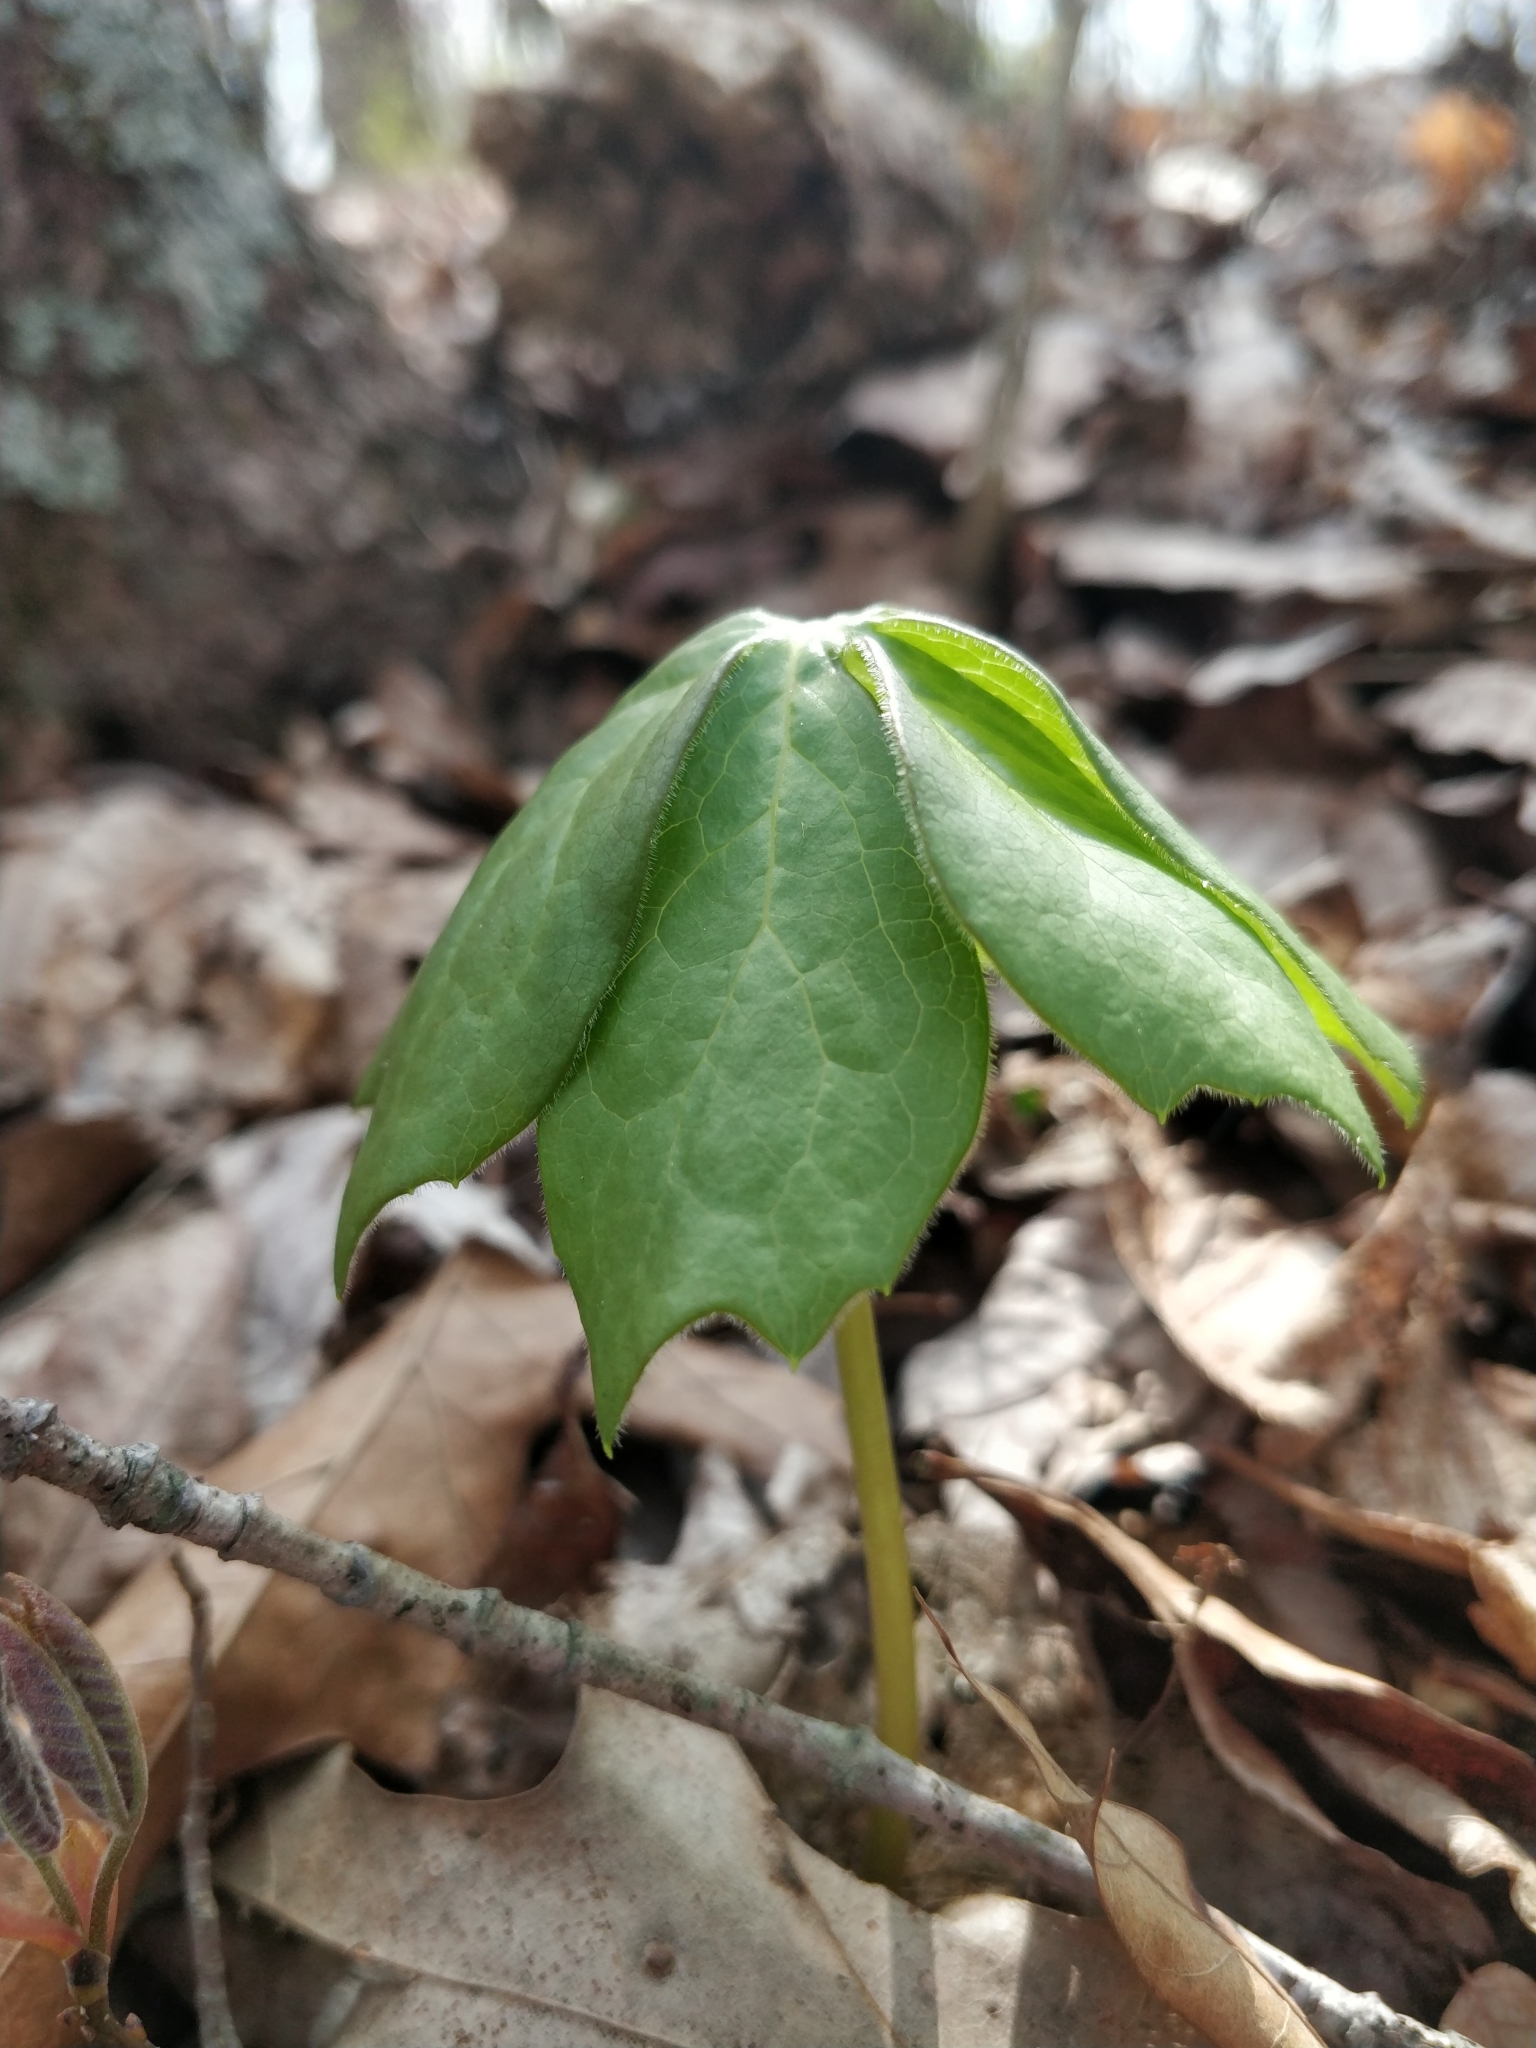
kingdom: Plantae
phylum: Tracheophyta
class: Magnoliopsida
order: Ranunculales
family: Berberidaceae
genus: Podophyllum
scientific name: Podophyllum peltatum
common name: Wild mandrake
